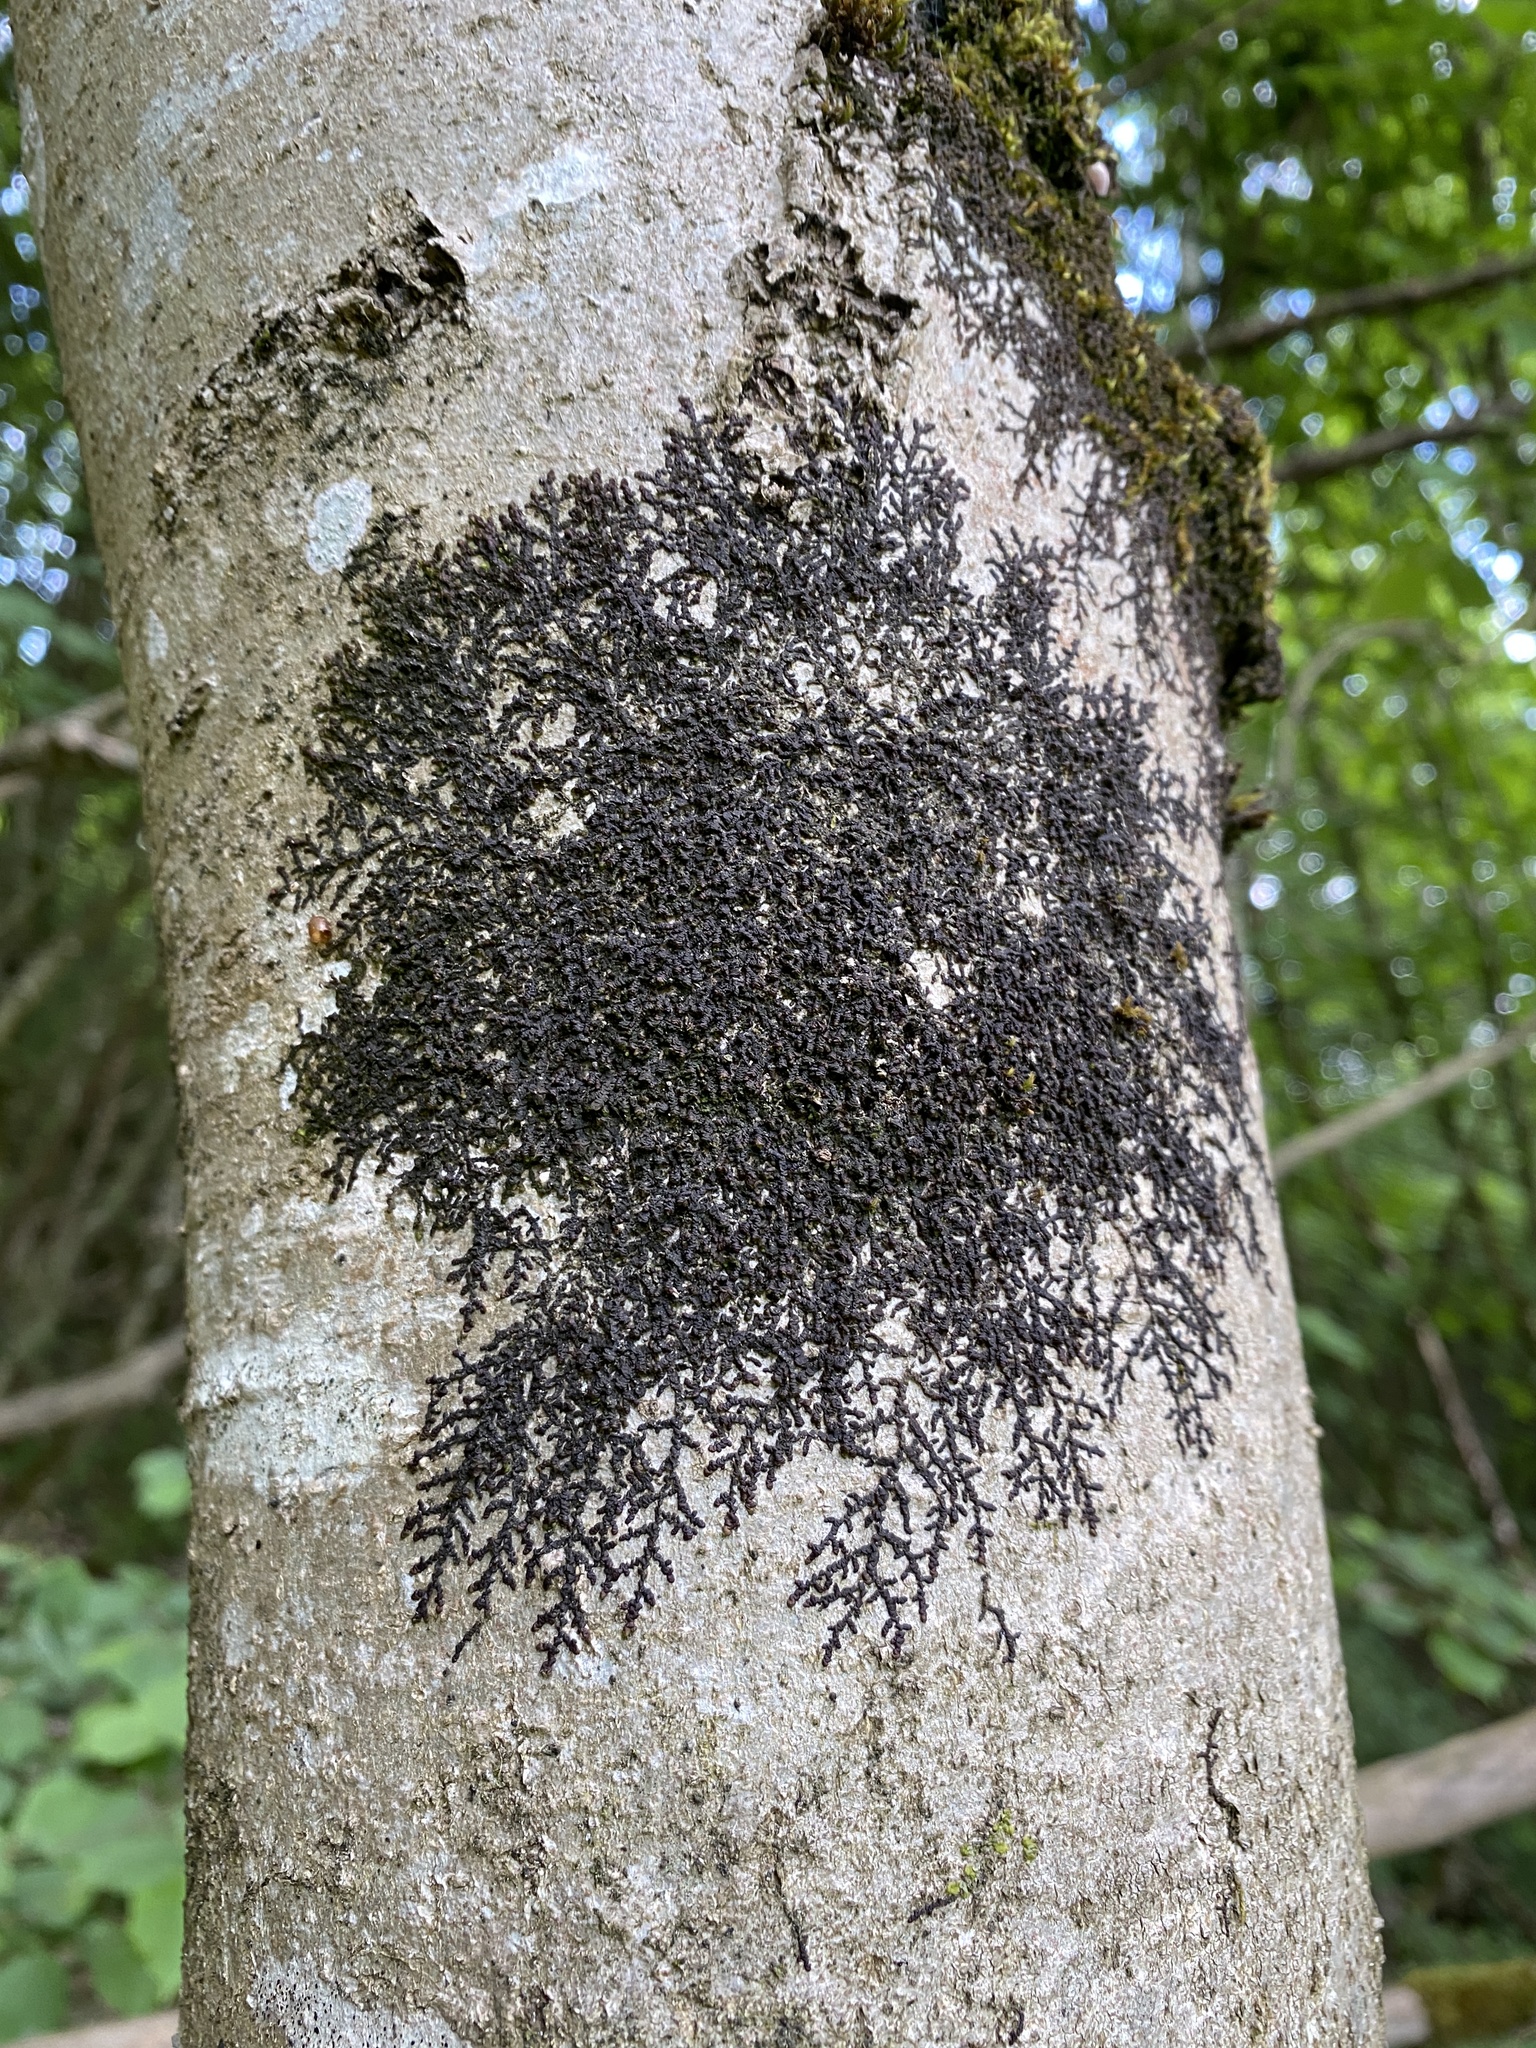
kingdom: Plantae
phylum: Marchantiophyta
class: Jungermanniopsida
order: Porellales
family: Frullaniaceae
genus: Frullania
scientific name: Frullania dilatata
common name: Dilated scalewort
